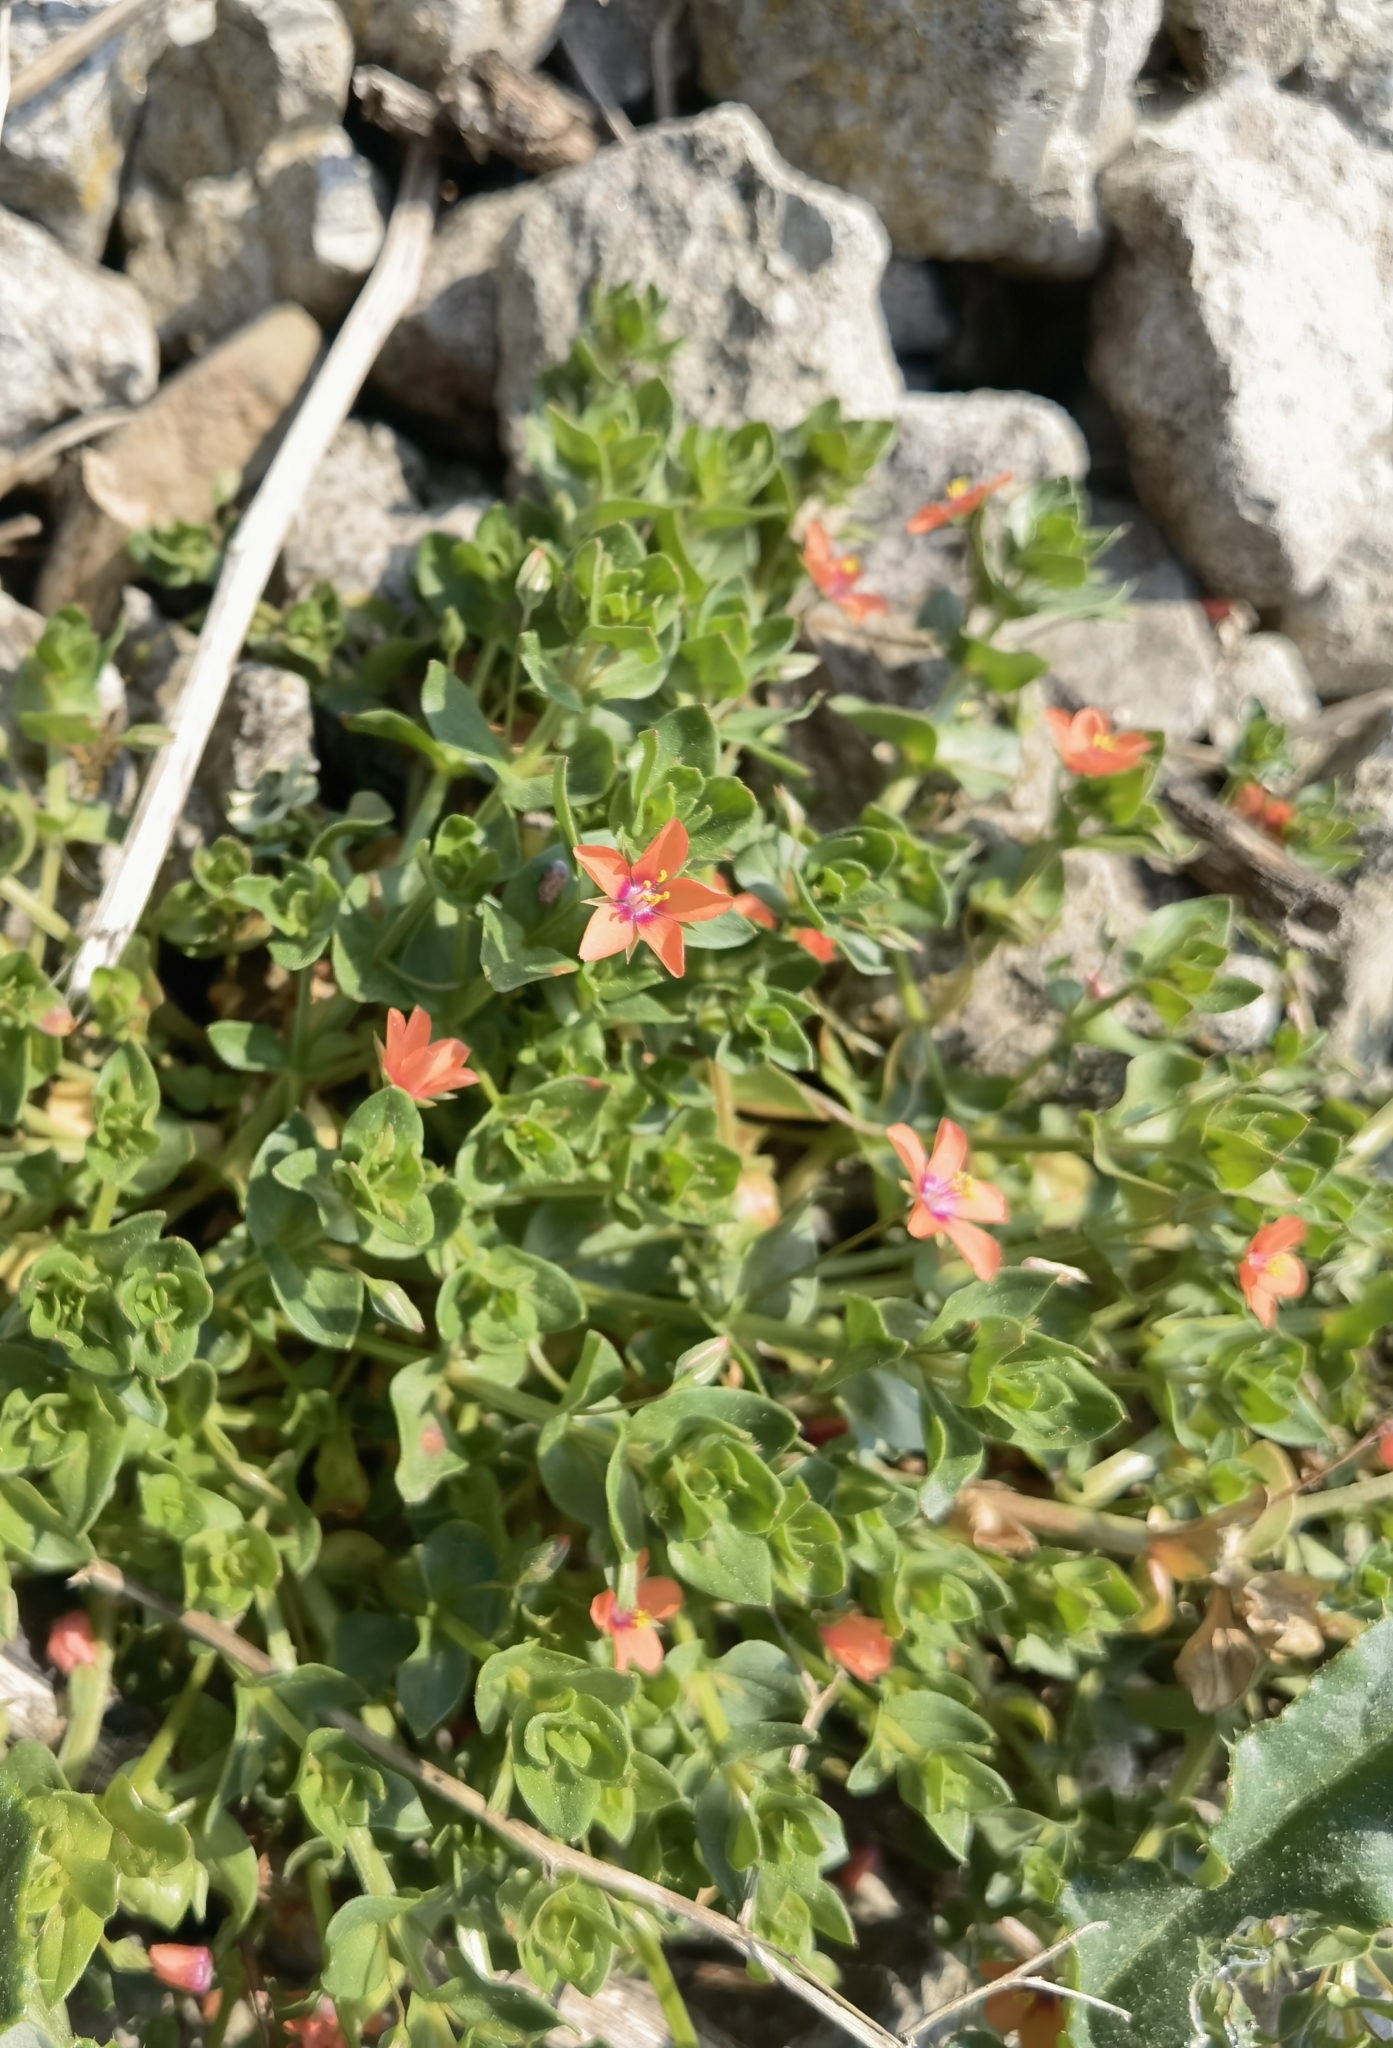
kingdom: Plantae
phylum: Tracheophyta
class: Magnoliopsida
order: Ericales
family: Primulaceae
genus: Lysimachia
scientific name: Lysimachia arvensis
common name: Scarlet pimpernel
